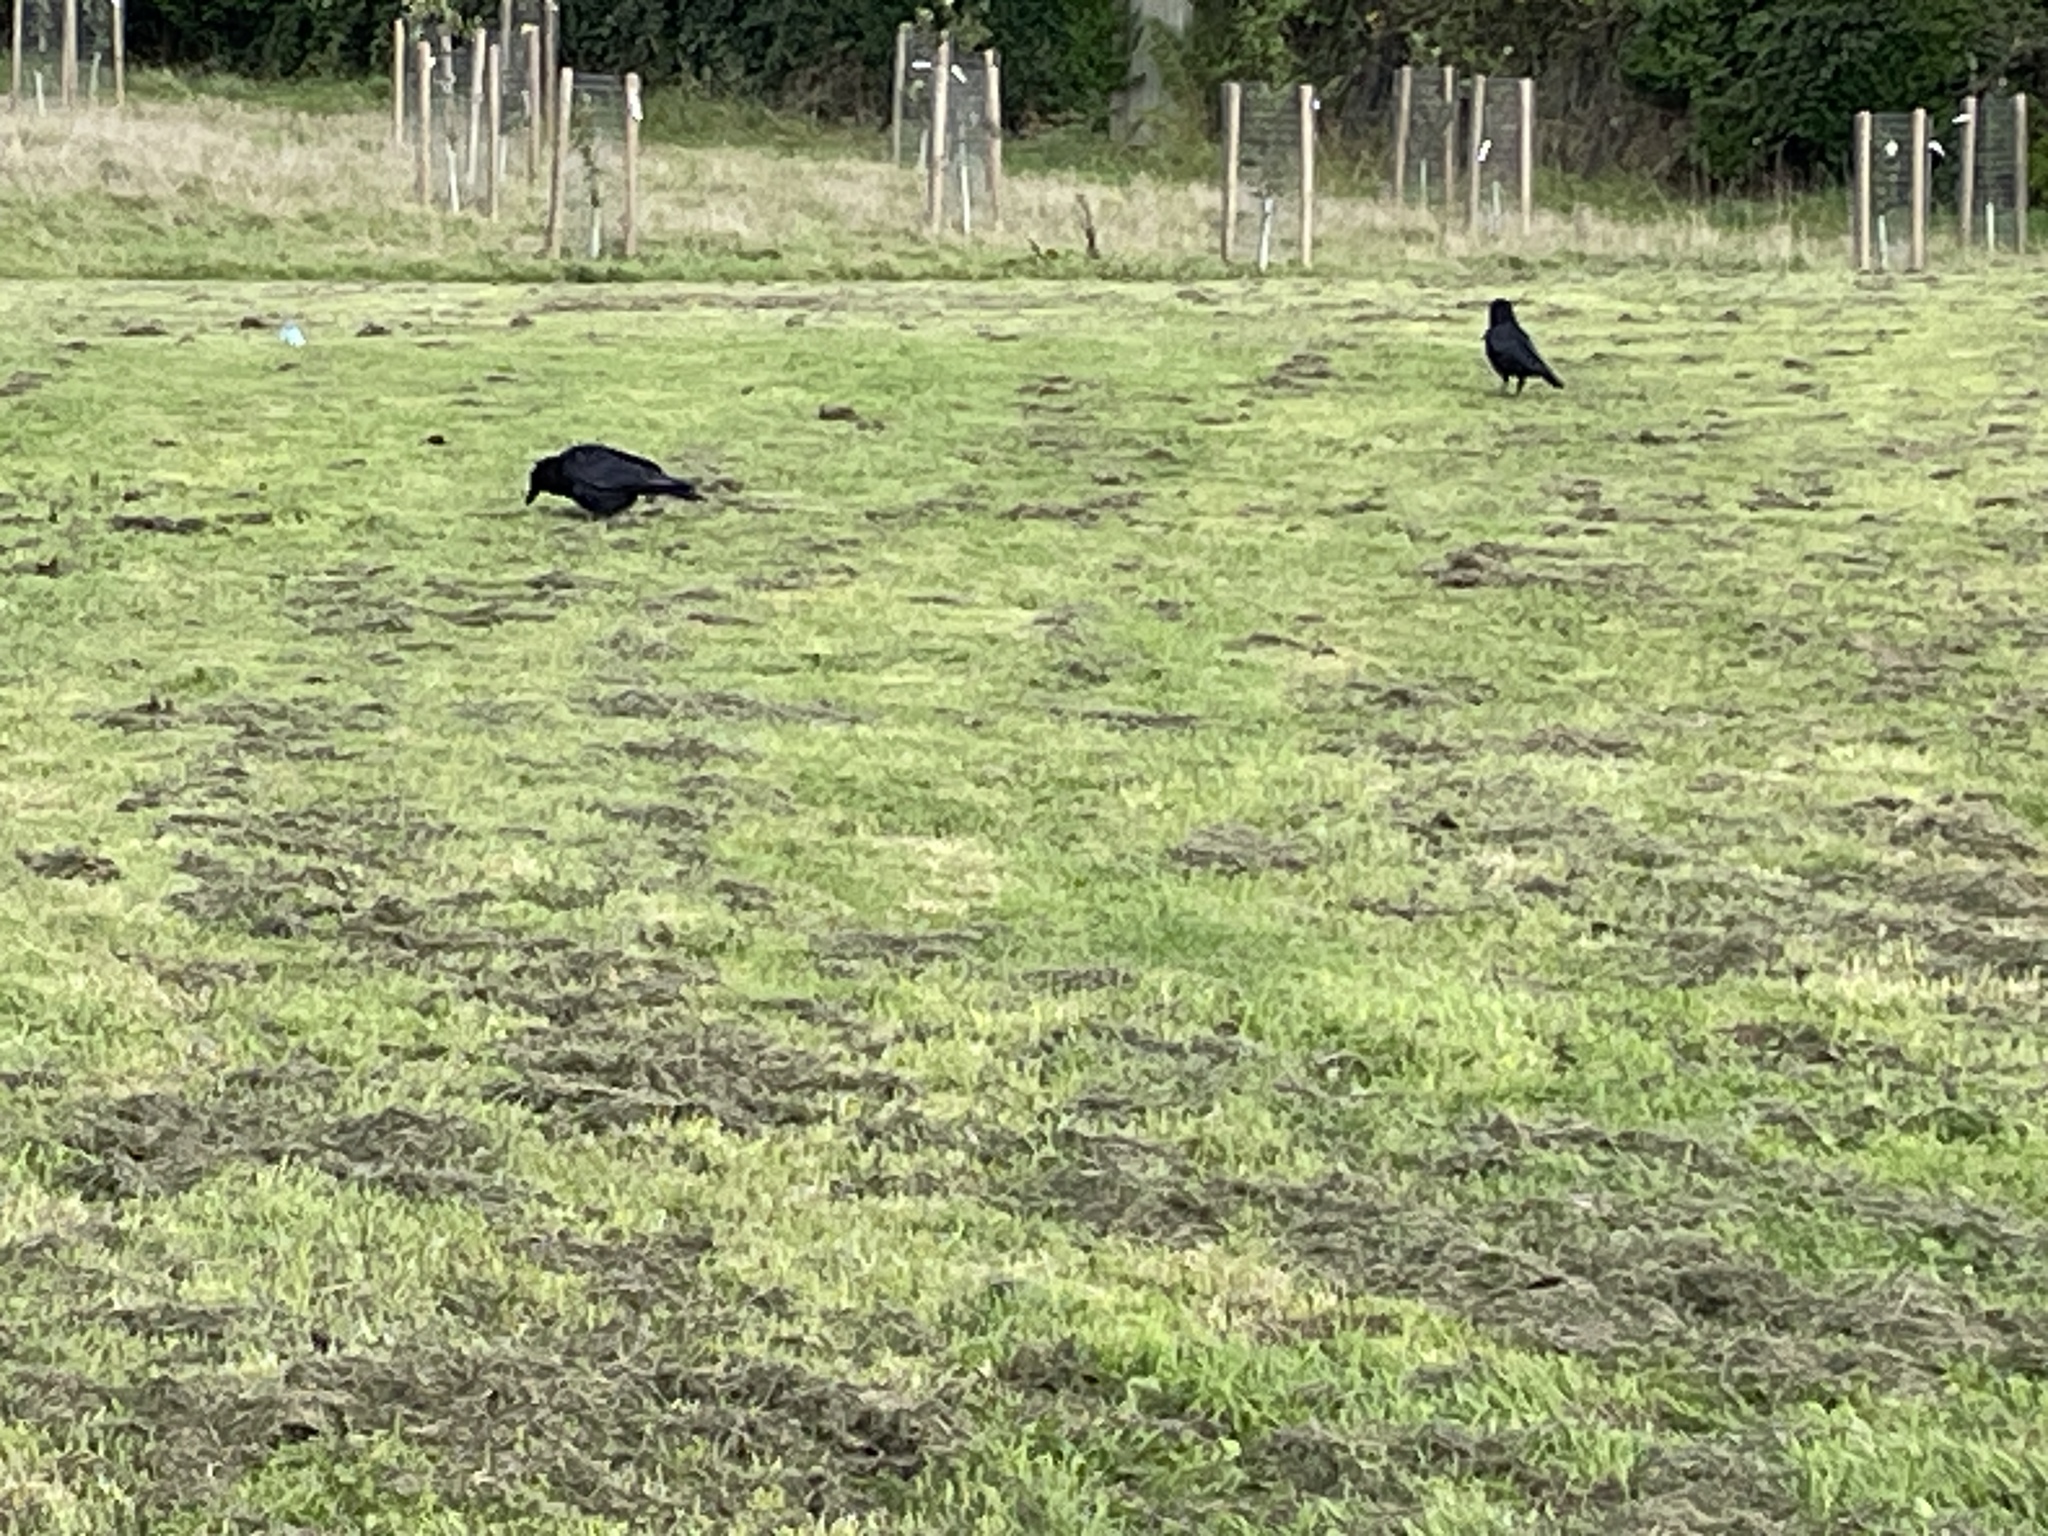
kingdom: Animalia
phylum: Chordata
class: Aves
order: Passeriformes
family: Corvidae
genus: Corvus
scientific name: Corvus corone
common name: Carrion crow
